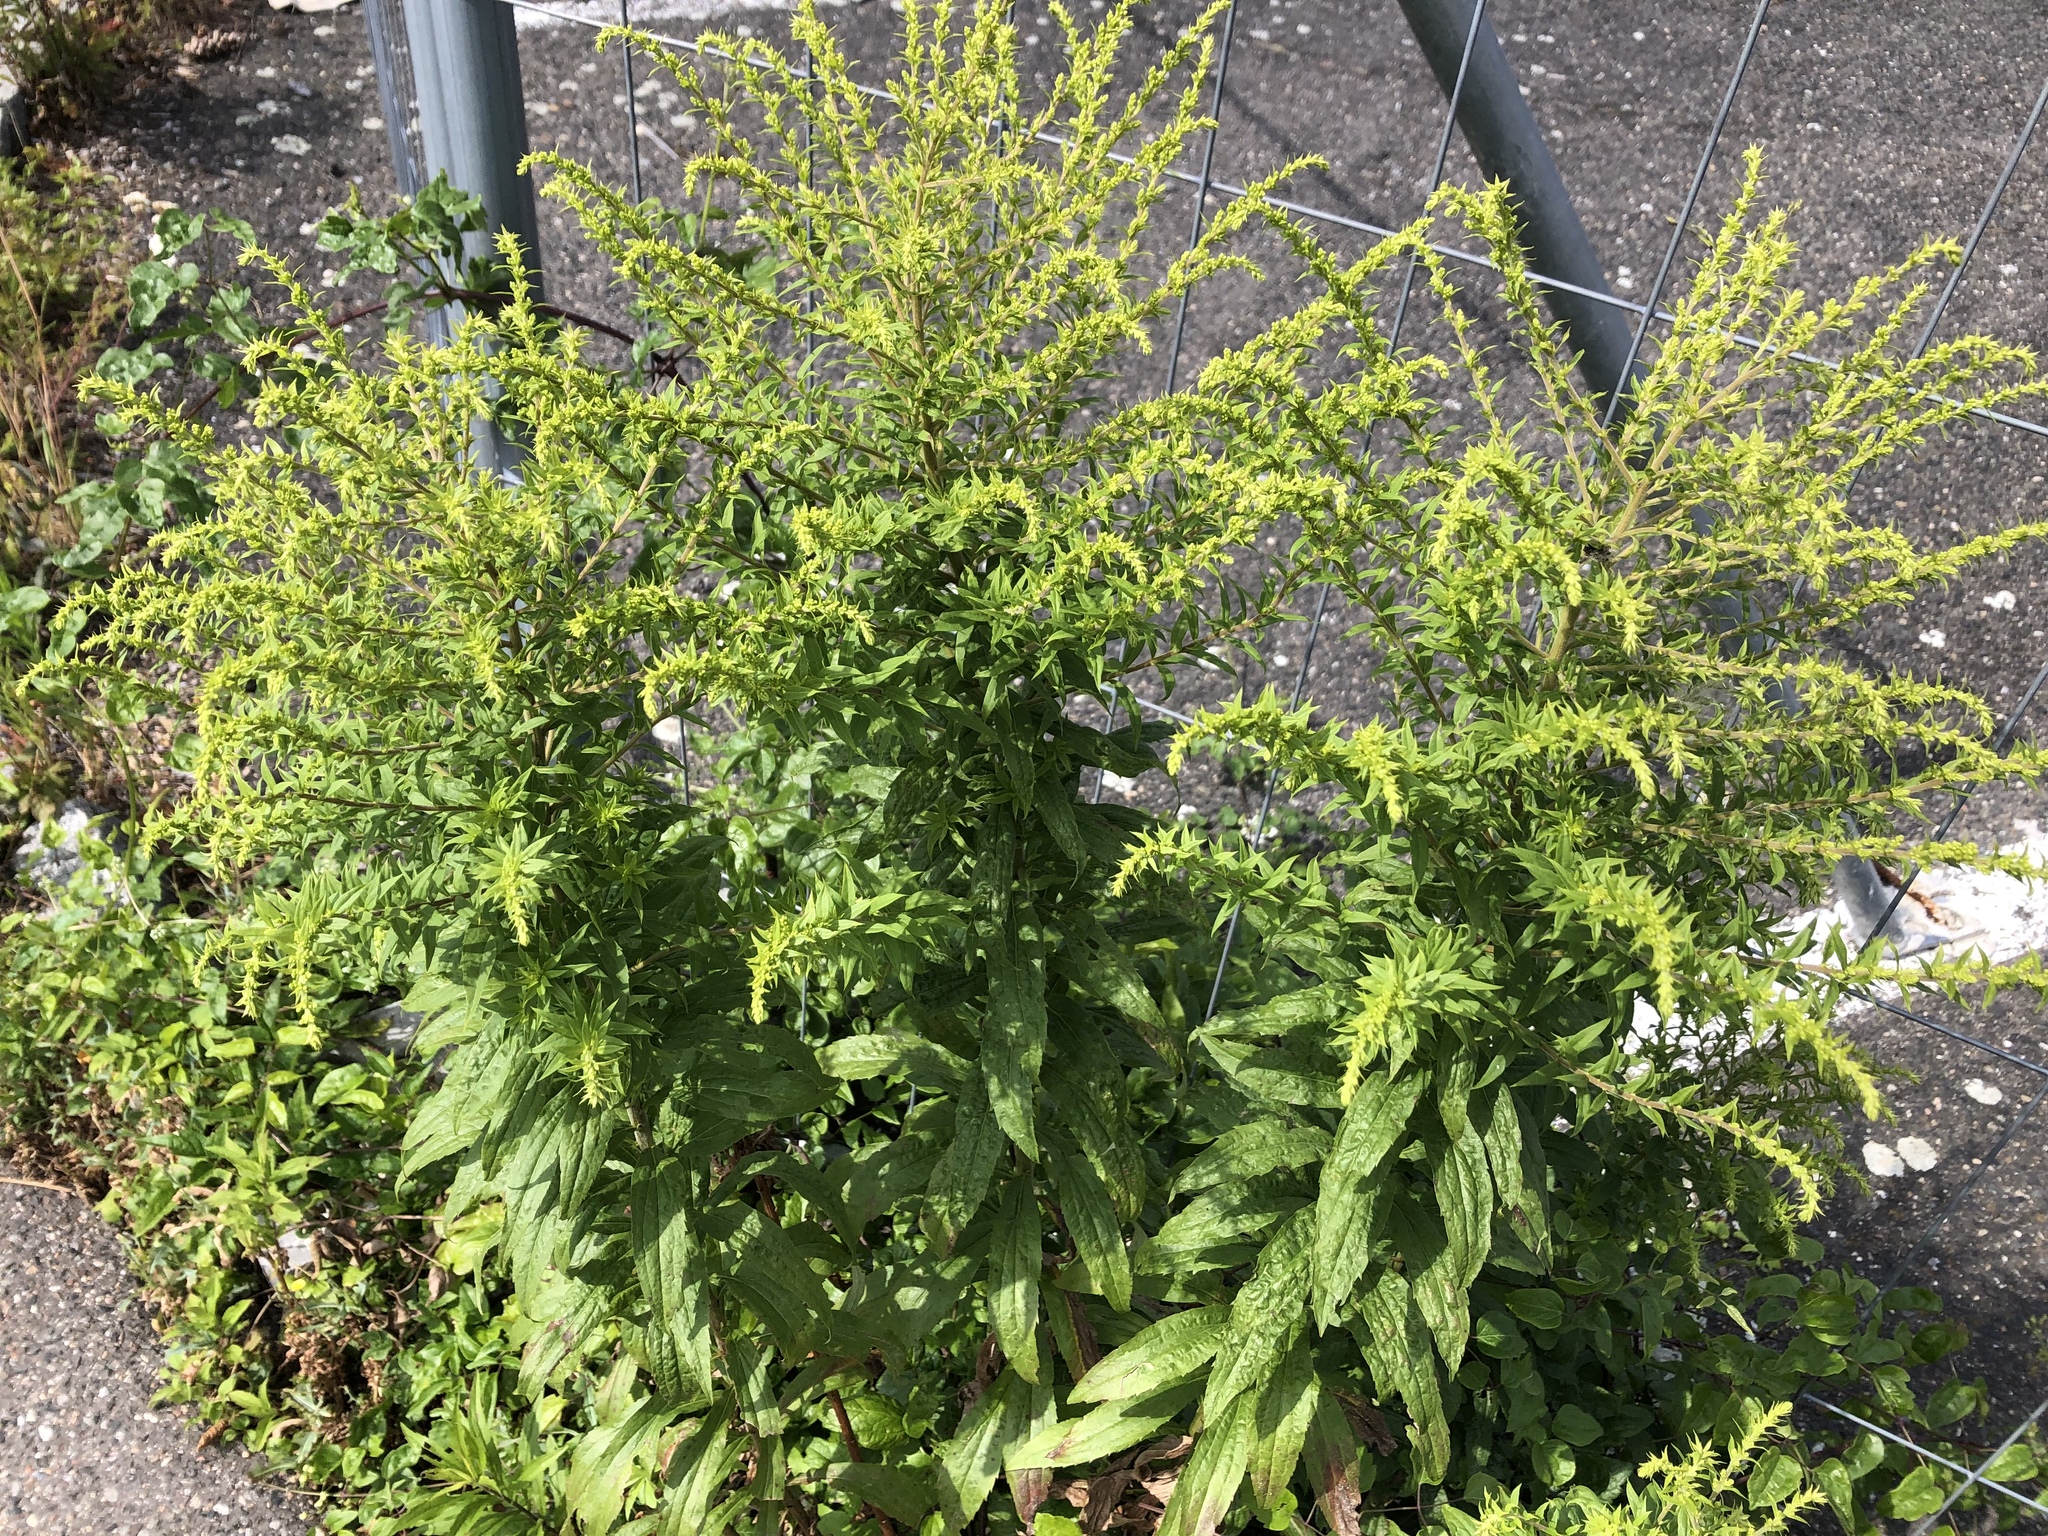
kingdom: Plantae
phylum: Tracheophyta
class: Magnoliopsida
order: Asterales
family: Asteraceae
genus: Solidago
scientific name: Solidago canadensis
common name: Canada goldenrod
